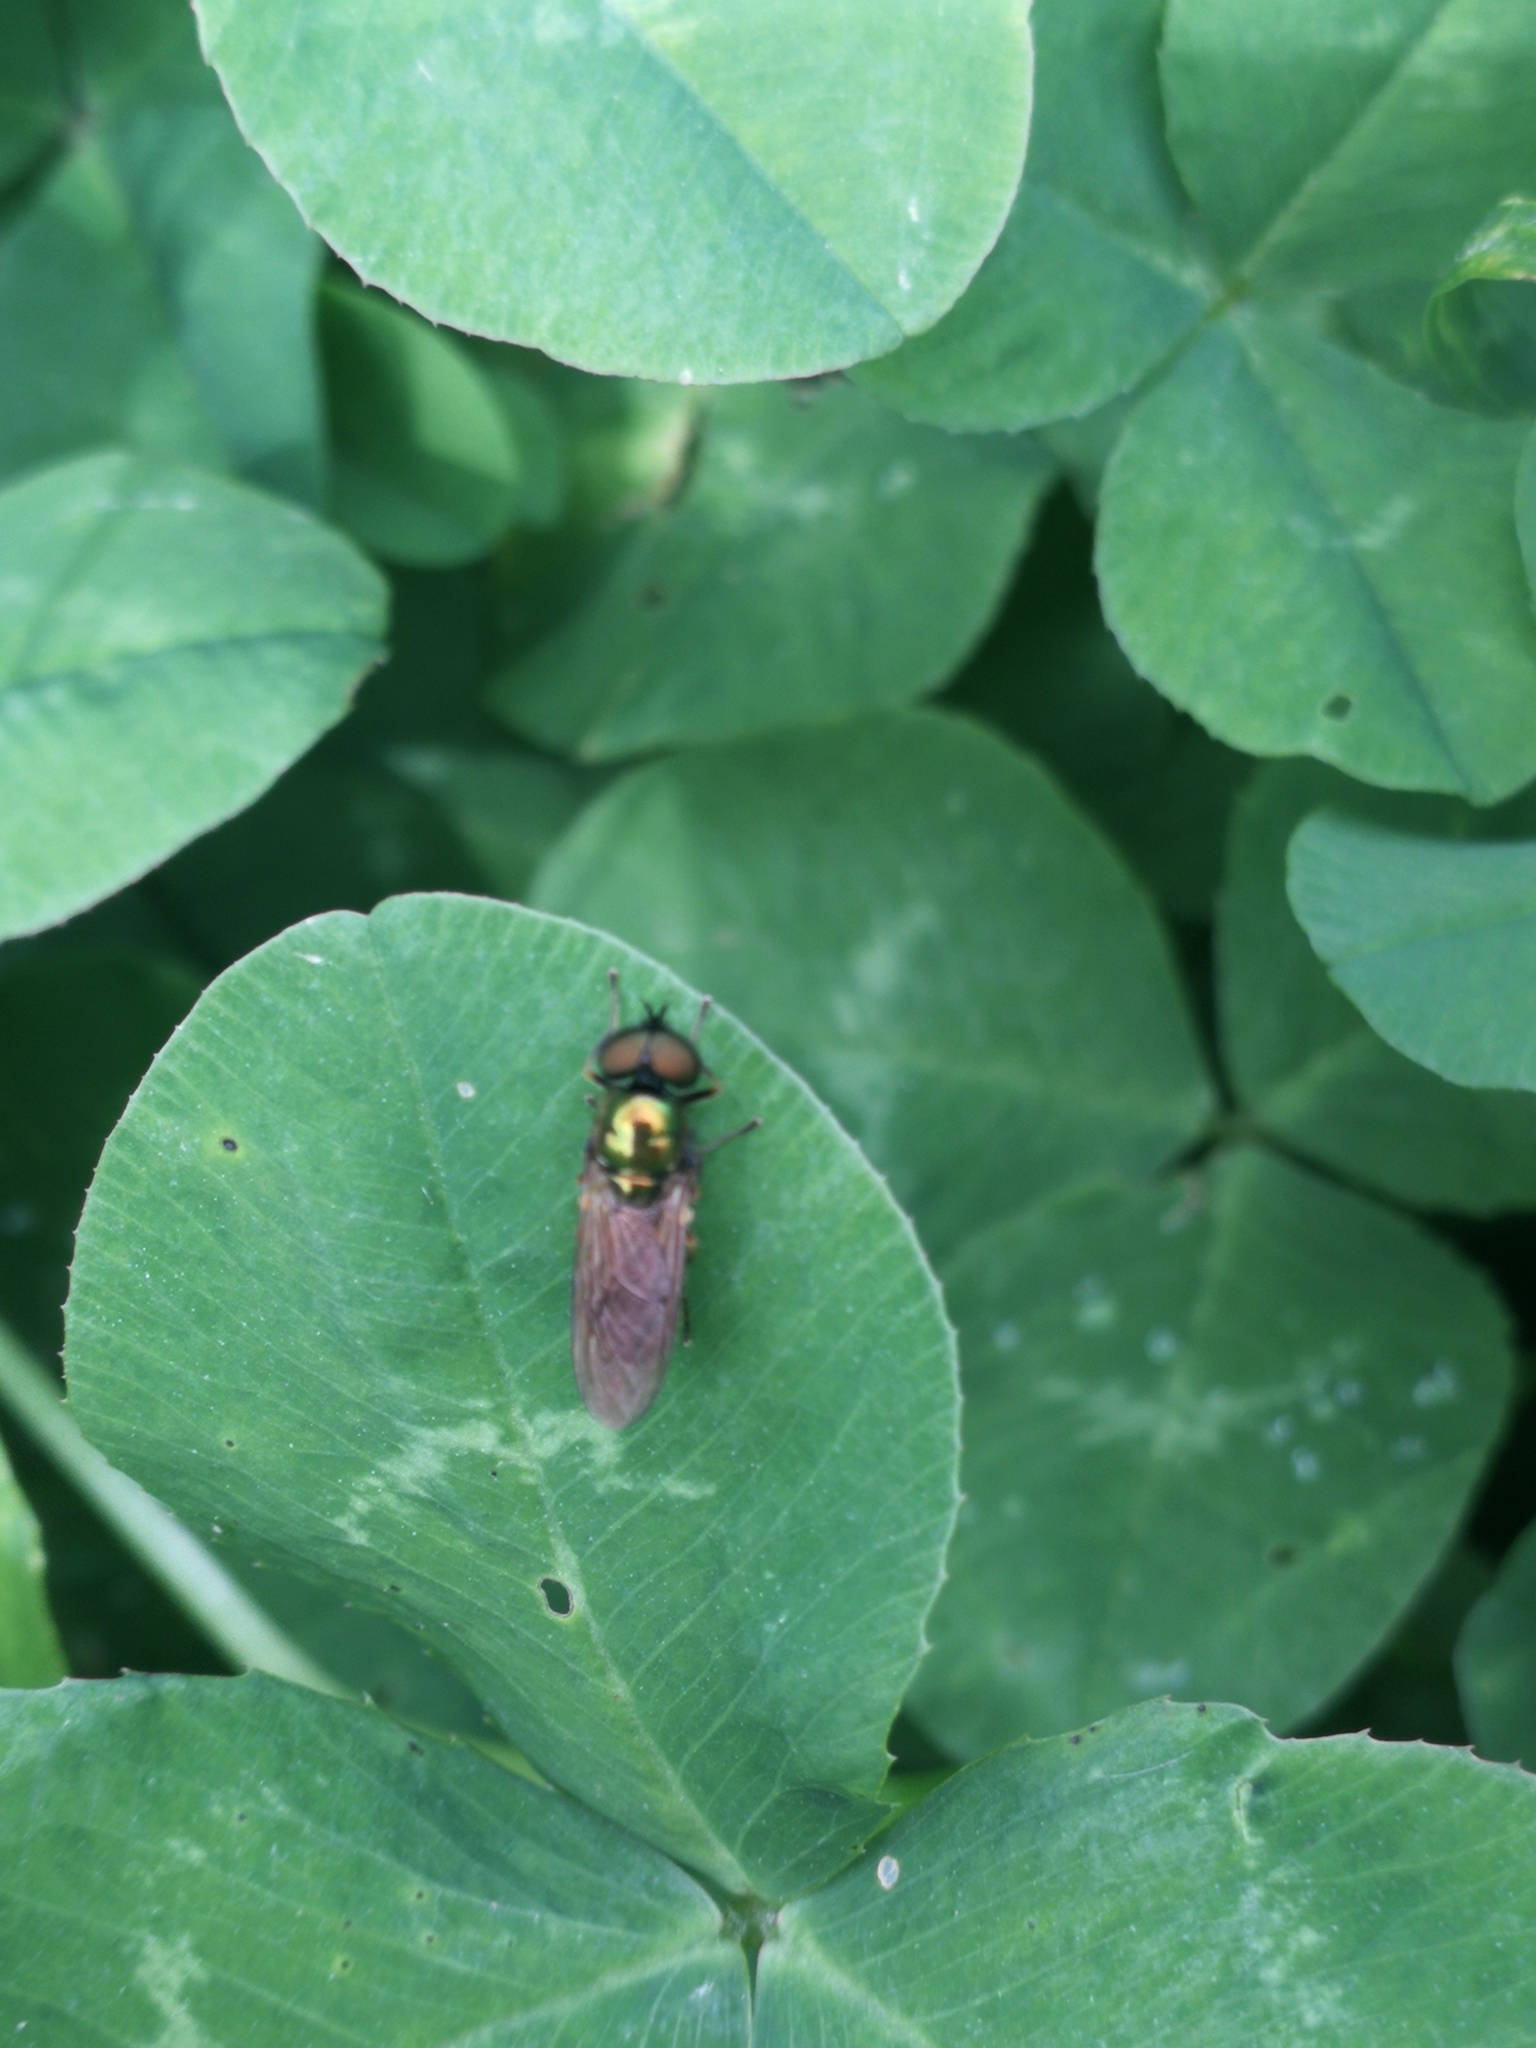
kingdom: Animalia
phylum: Arthropoda
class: Insecta
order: Diptera
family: Stratiomyidae
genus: Chloromyia
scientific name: Chloromyia formosa
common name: Soldier fly
